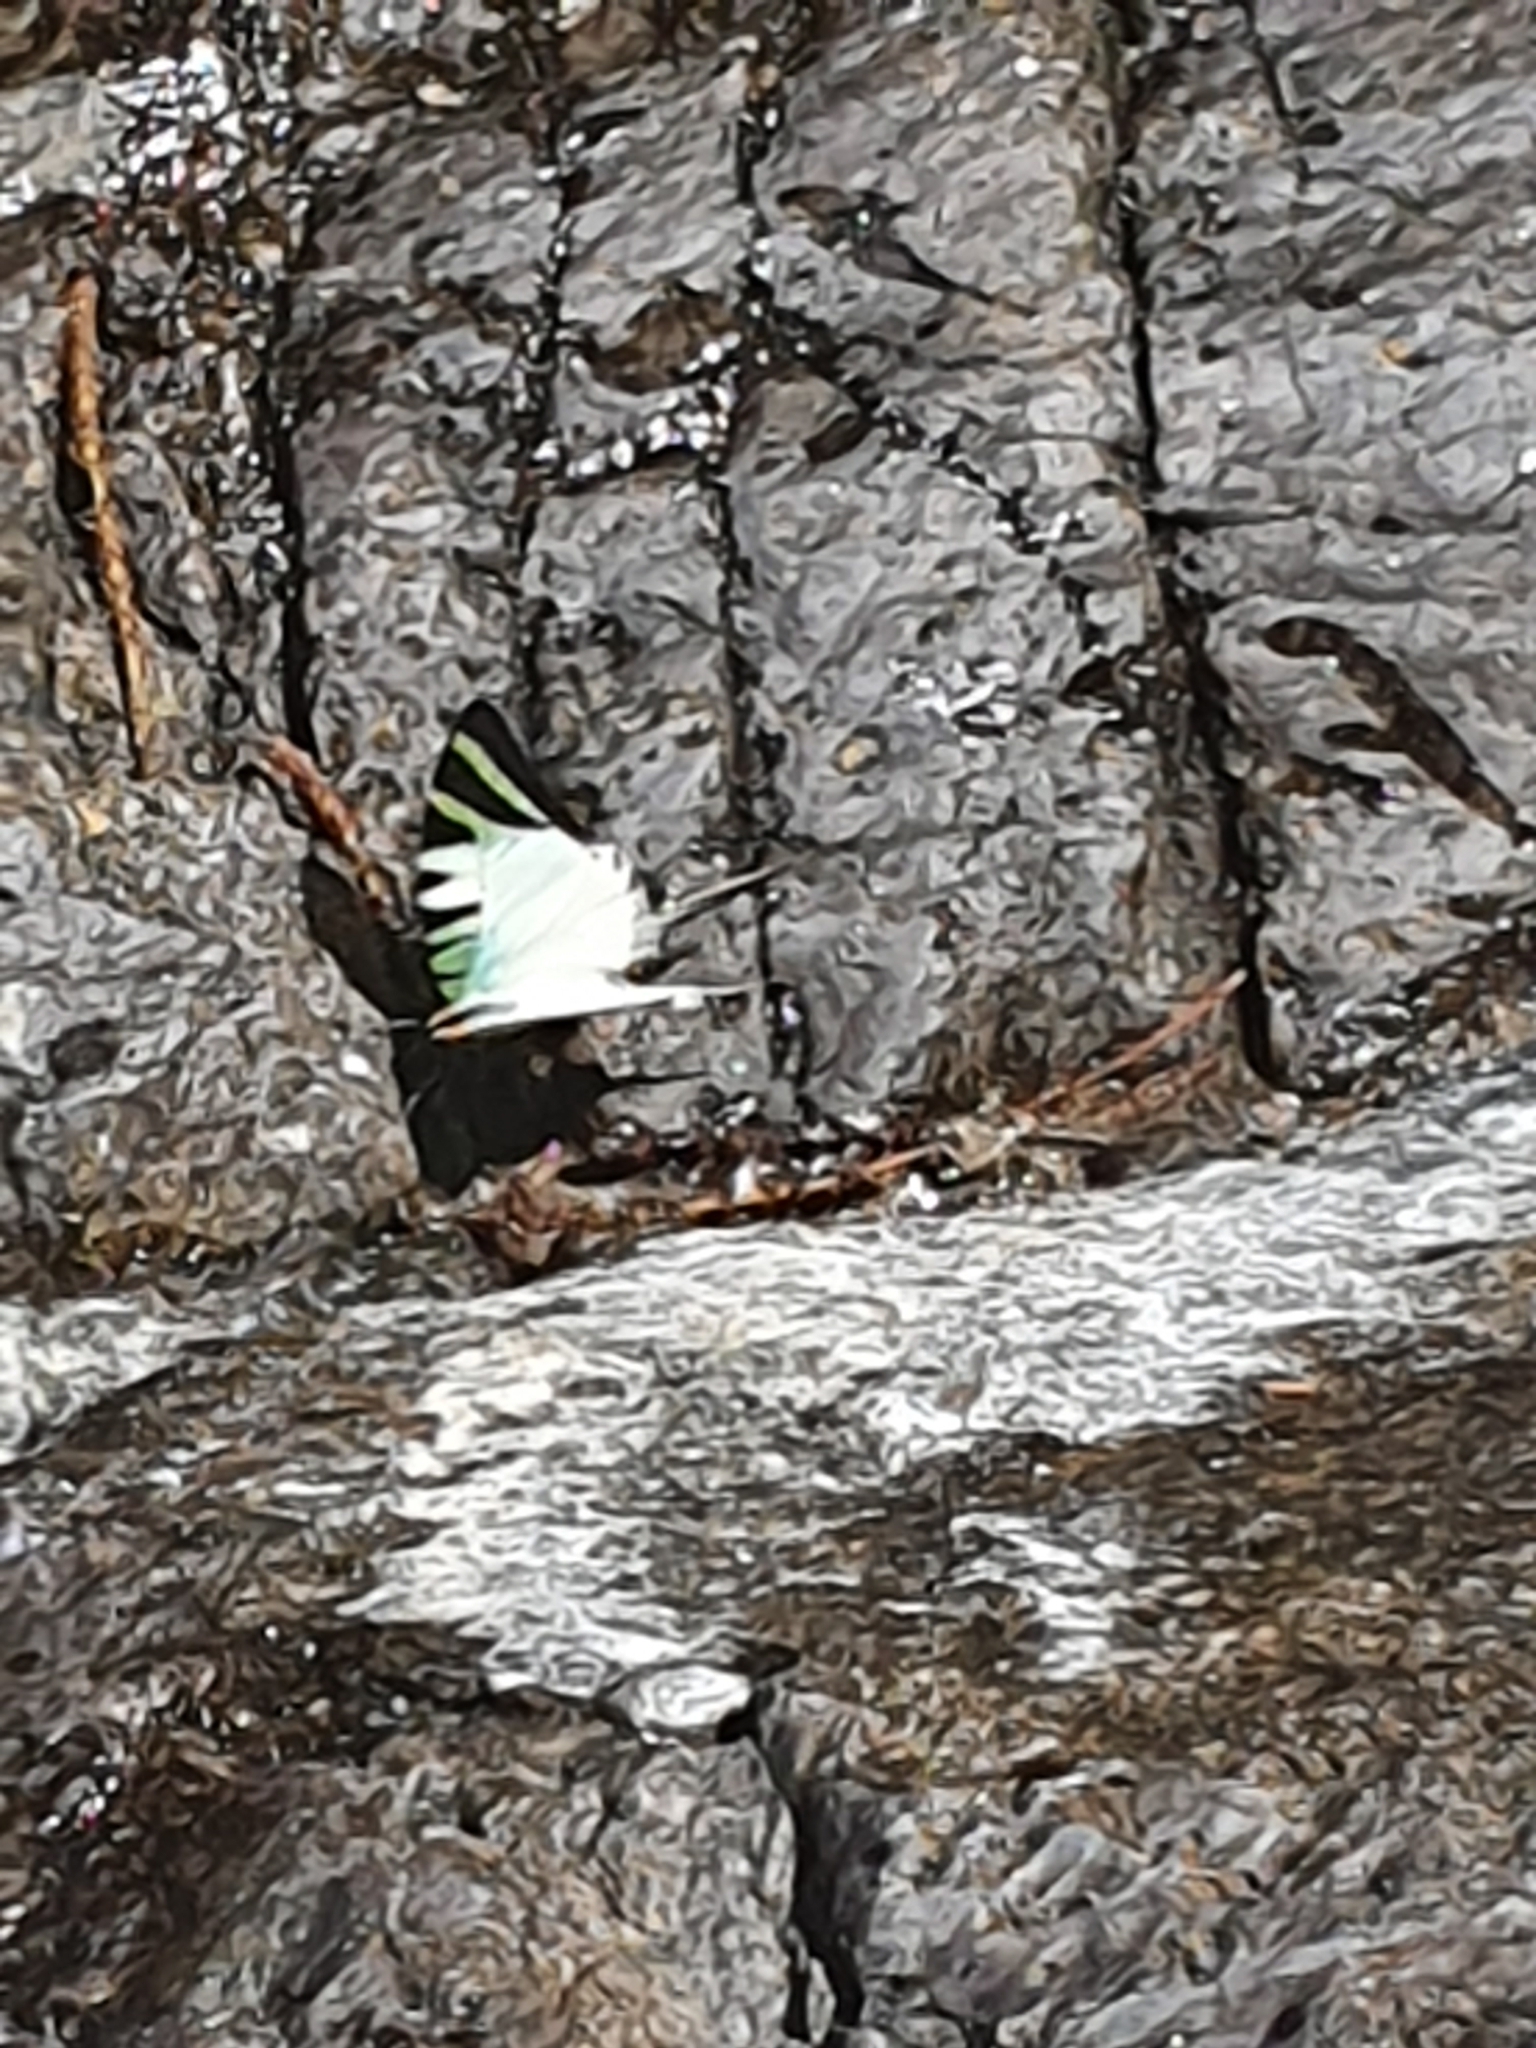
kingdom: Animalia
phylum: Arthropoda
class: Insecta
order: Lepidoptera
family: Papilionidae
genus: Graphium
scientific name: Graphium antiphates
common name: Fivebar swordtail
